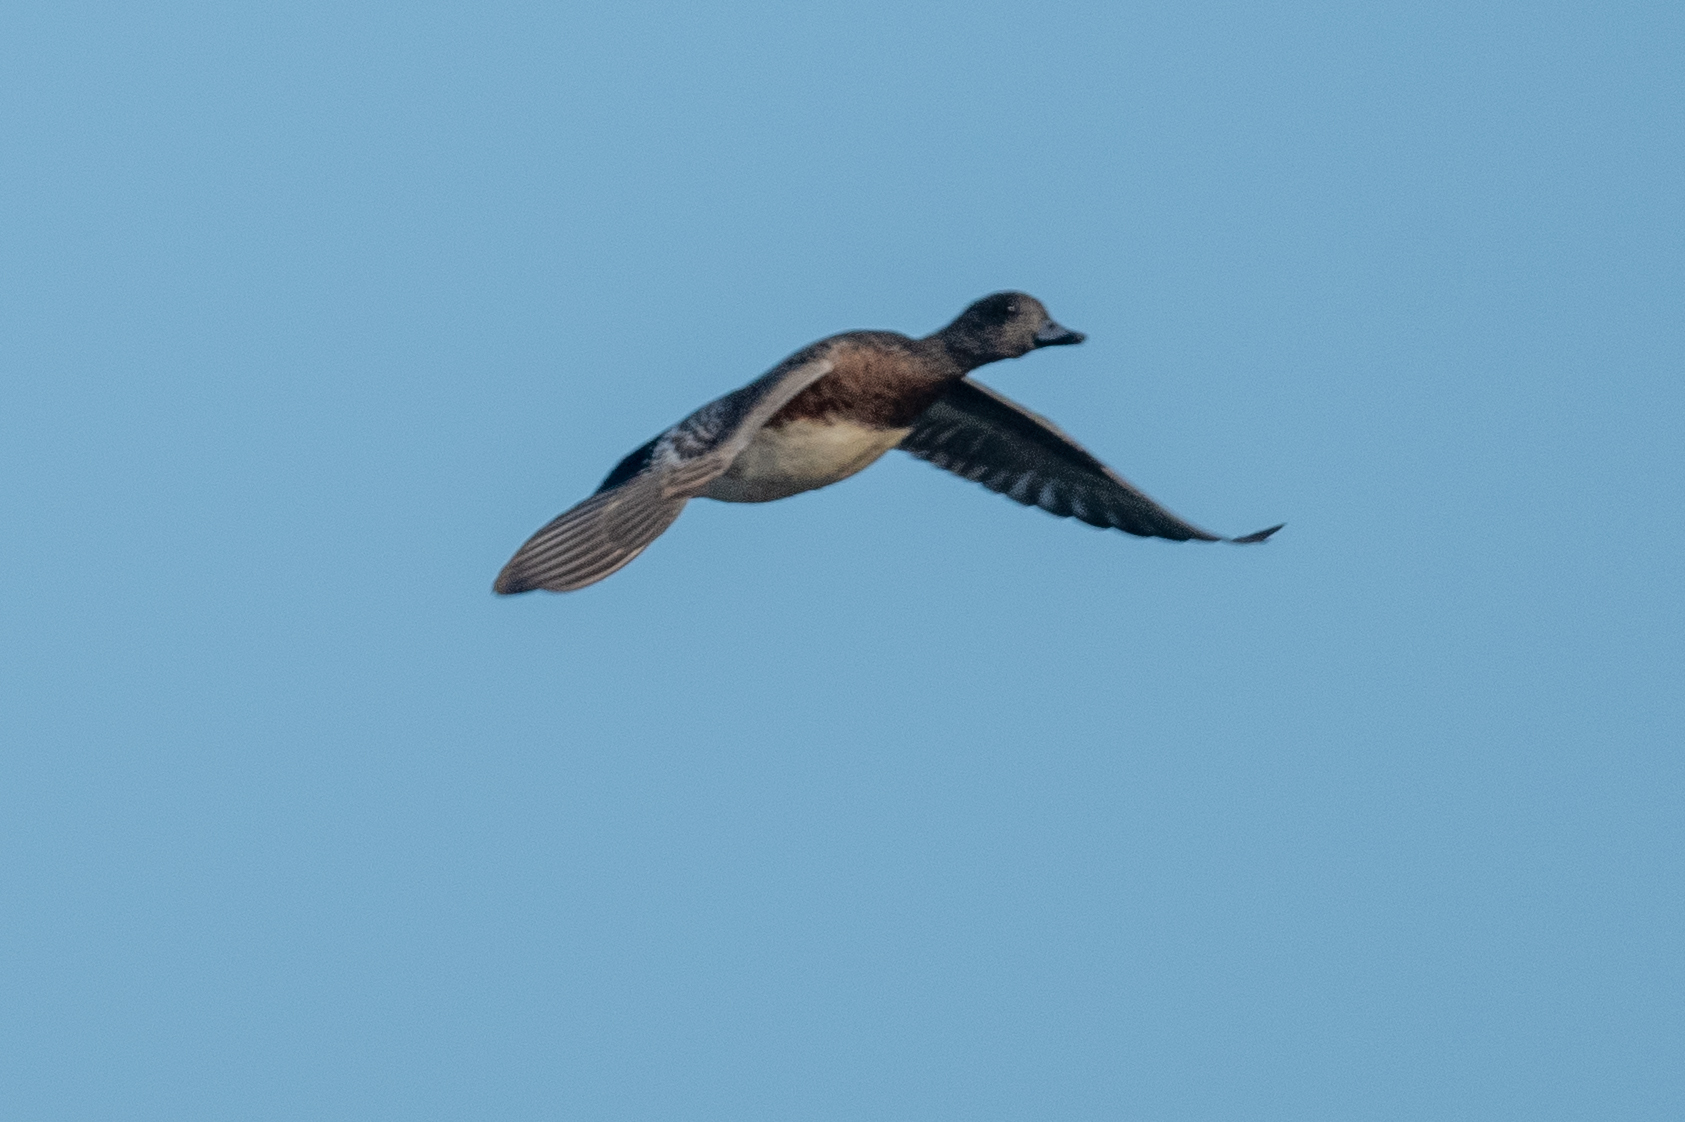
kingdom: Animalia
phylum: Chordata
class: Aves
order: Anseriformes
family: Anatidae
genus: Mareca
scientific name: Mareca americana
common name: American wigeon
